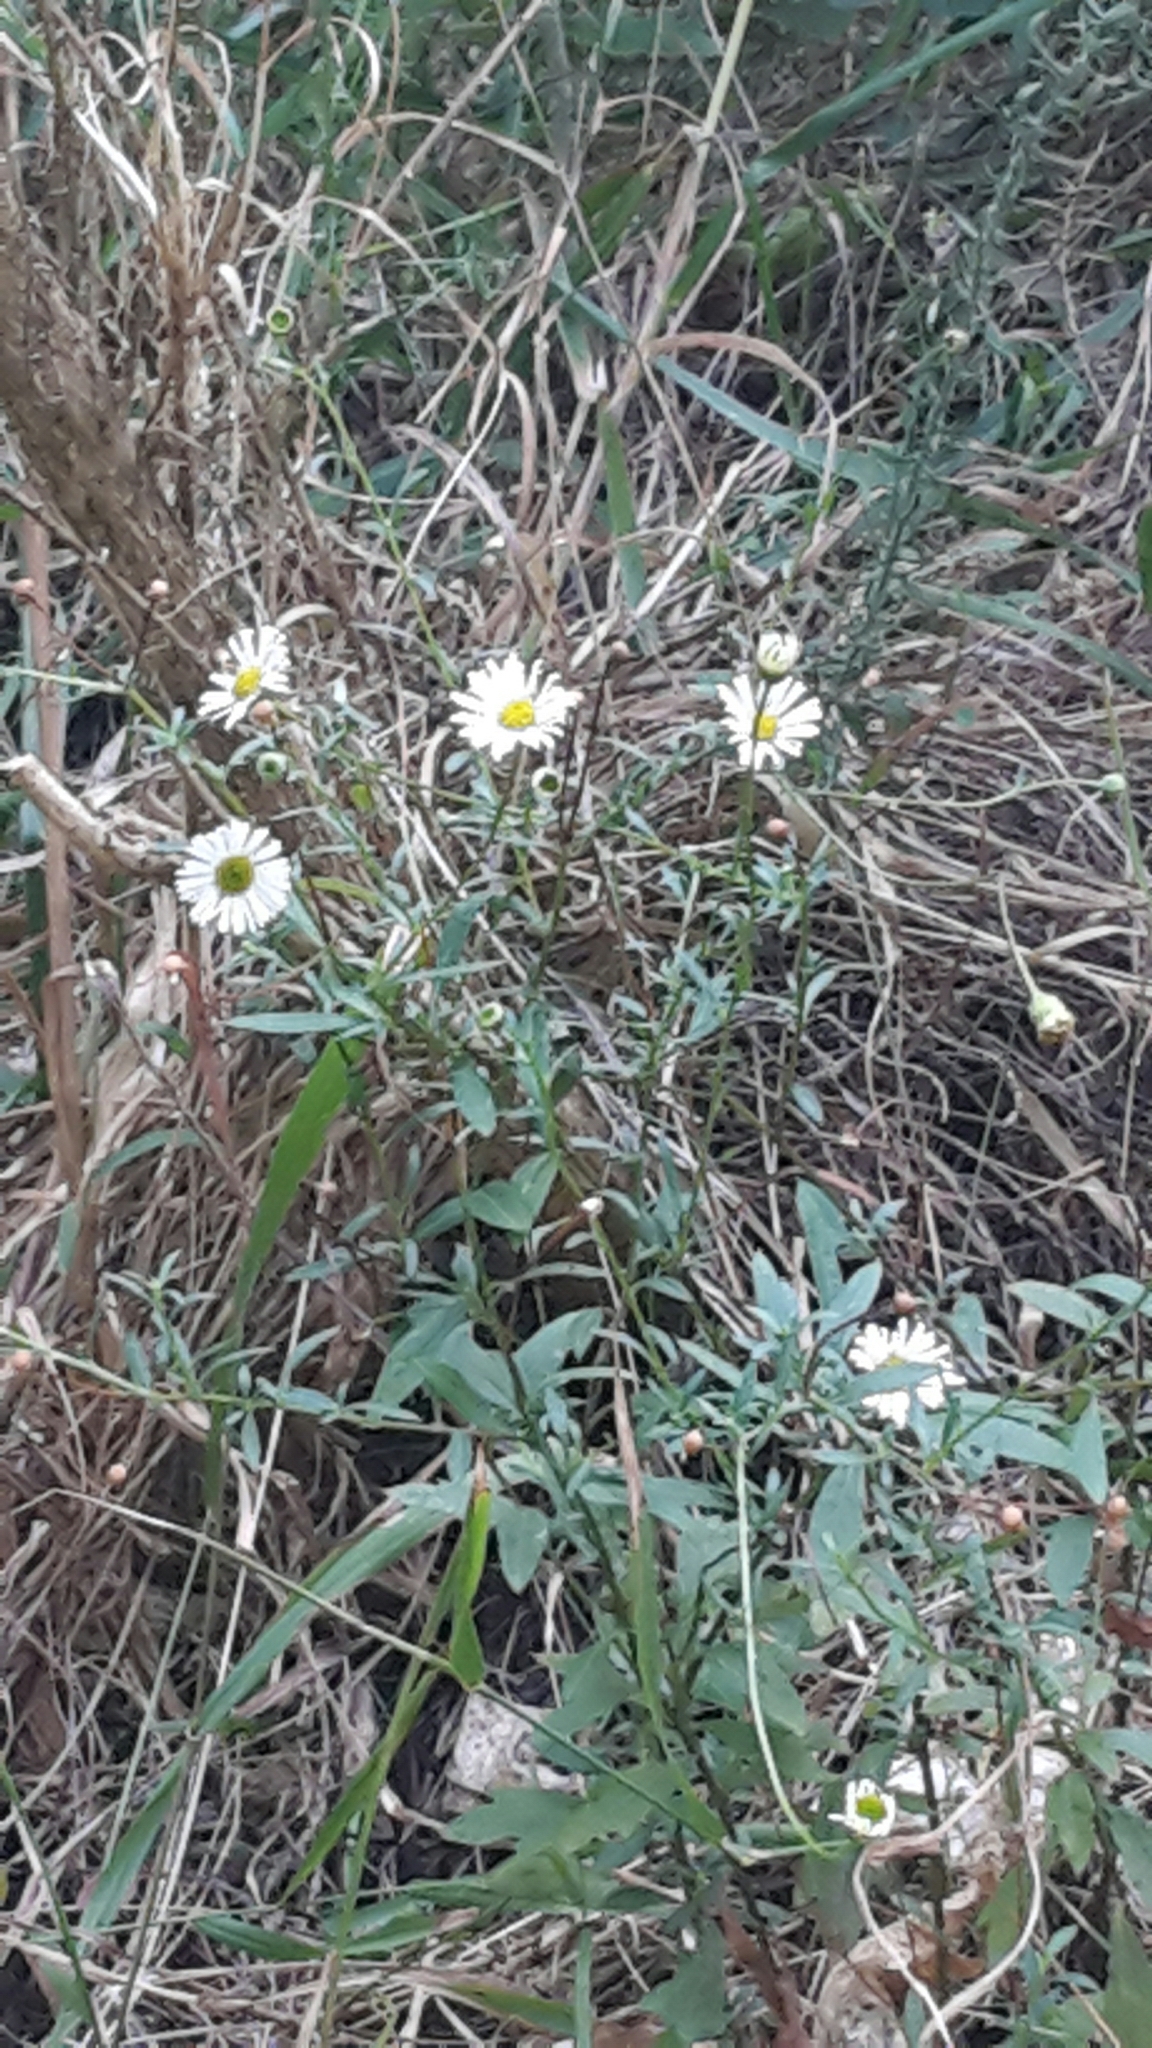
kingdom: Plantae
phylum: Tracheophyta
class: Magnoliopsida
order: Asterales
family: Asteraceae
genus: Erigeron
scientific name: Erigeron karvinskianus
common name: Mexican fleabane
